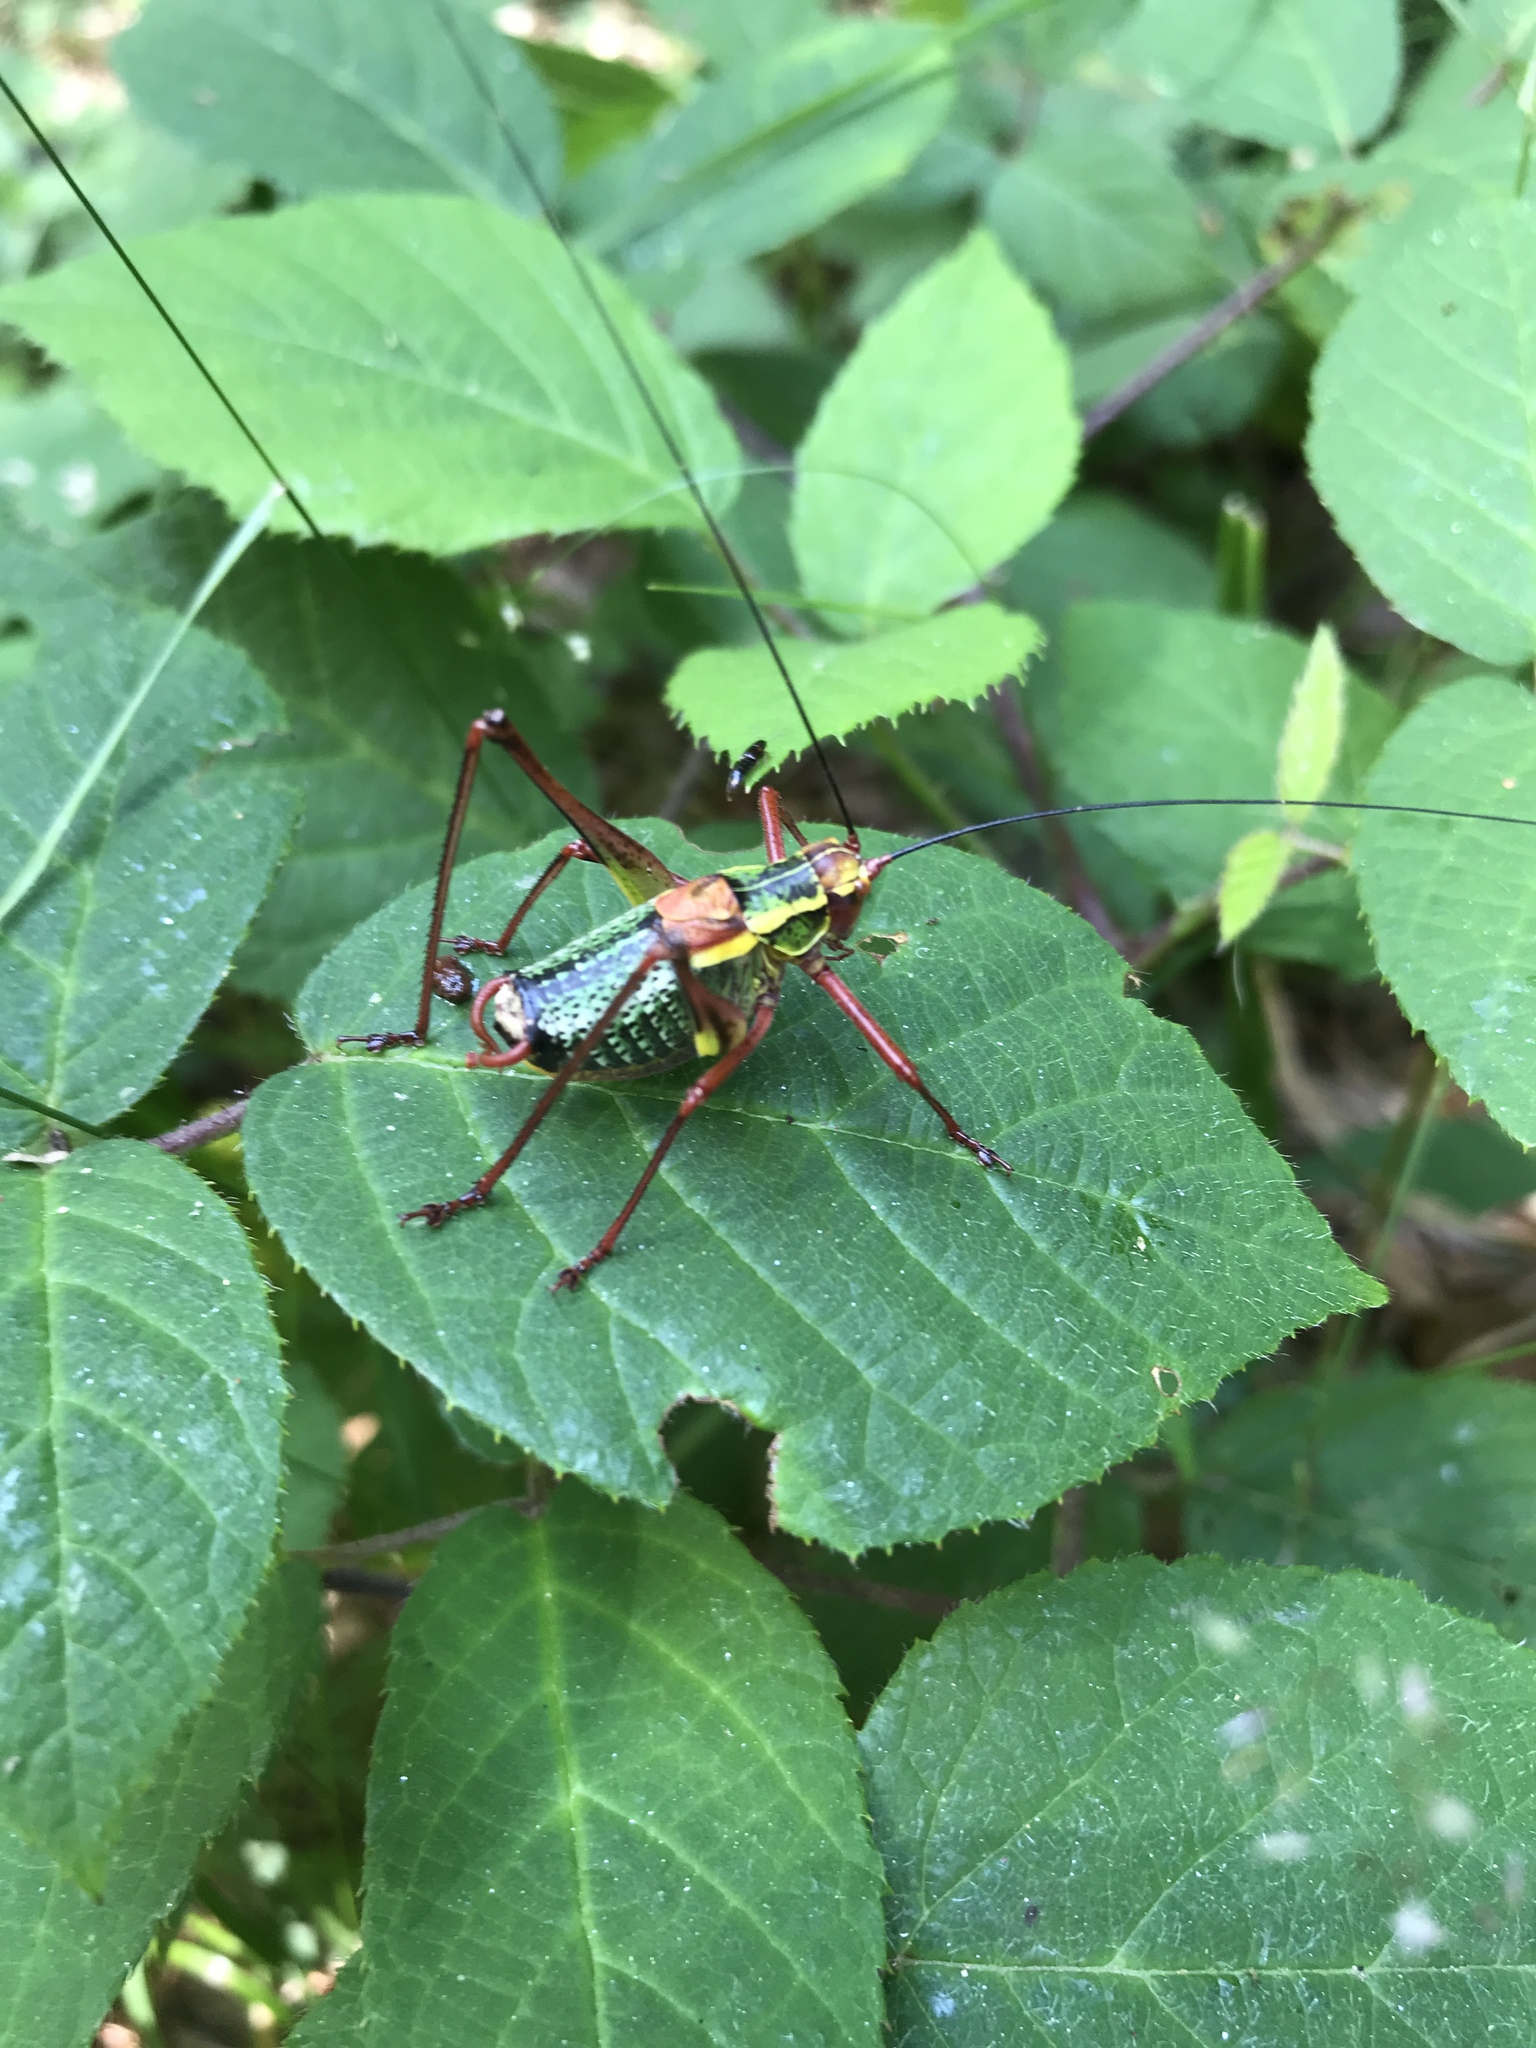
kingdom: Animalia
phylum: Arthropoda
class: Insecta
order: Orthoptera
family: Tettigoniidae
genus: Barbitistes
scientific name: Barbitistes serricauda
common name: Saw-tailed bush-cricket
